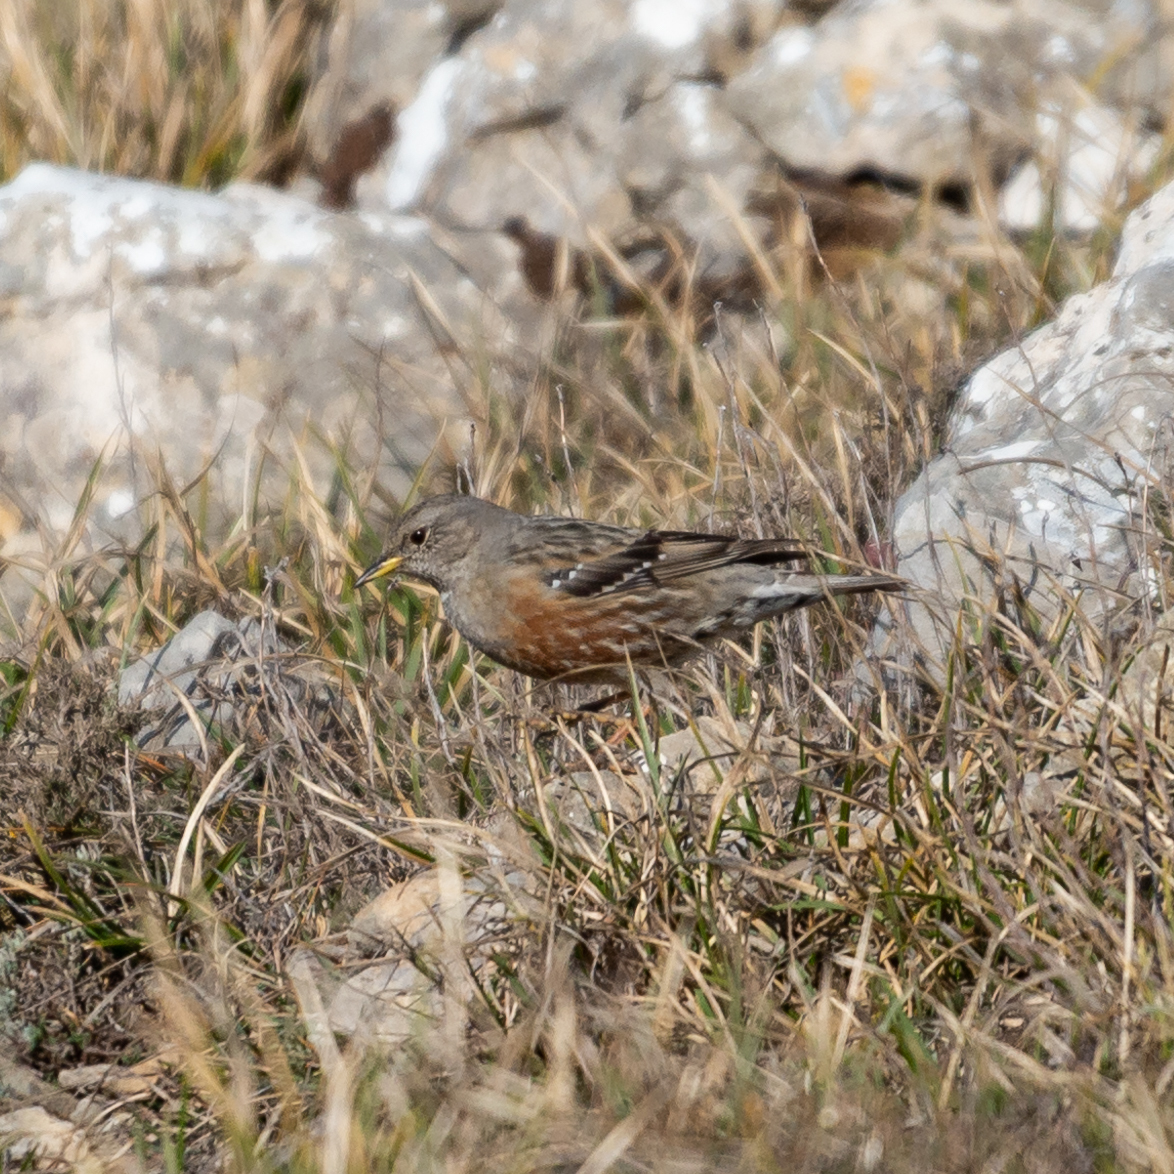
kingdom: Animalia
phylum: Chordata
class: Aves
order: Passeriformes
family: Prunellidae
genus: Prunella
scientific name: Prunella collaris
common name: Alpine accentor
